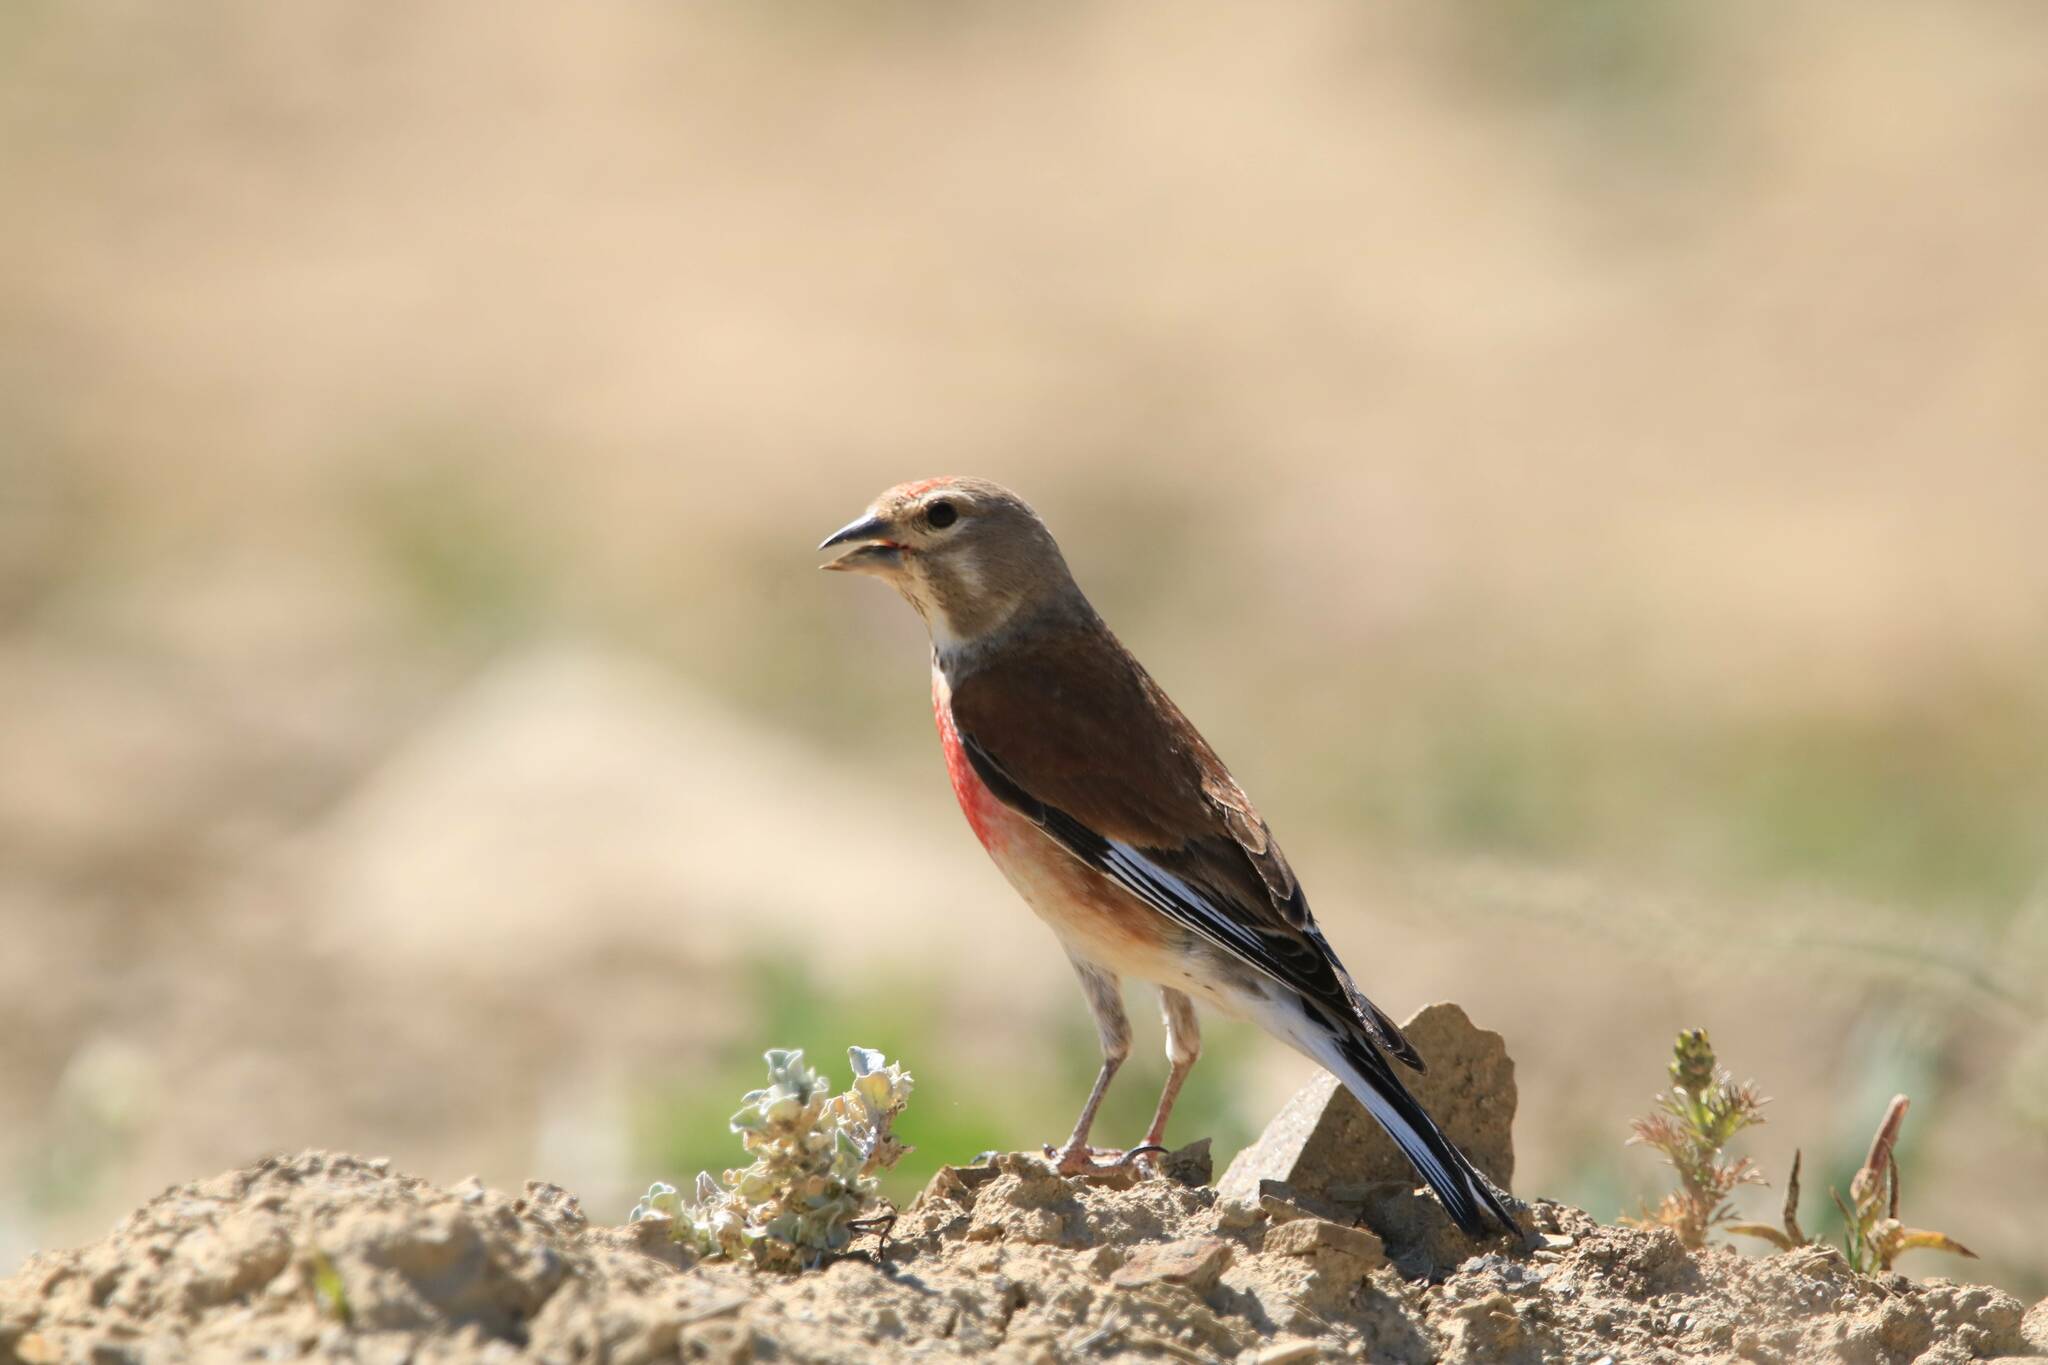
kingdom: Animalia
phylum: Chordata
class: Aves
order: Passeriformes
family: Fringillidae
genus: Linaria
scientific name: Linaria cannabina
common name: Common linnet
